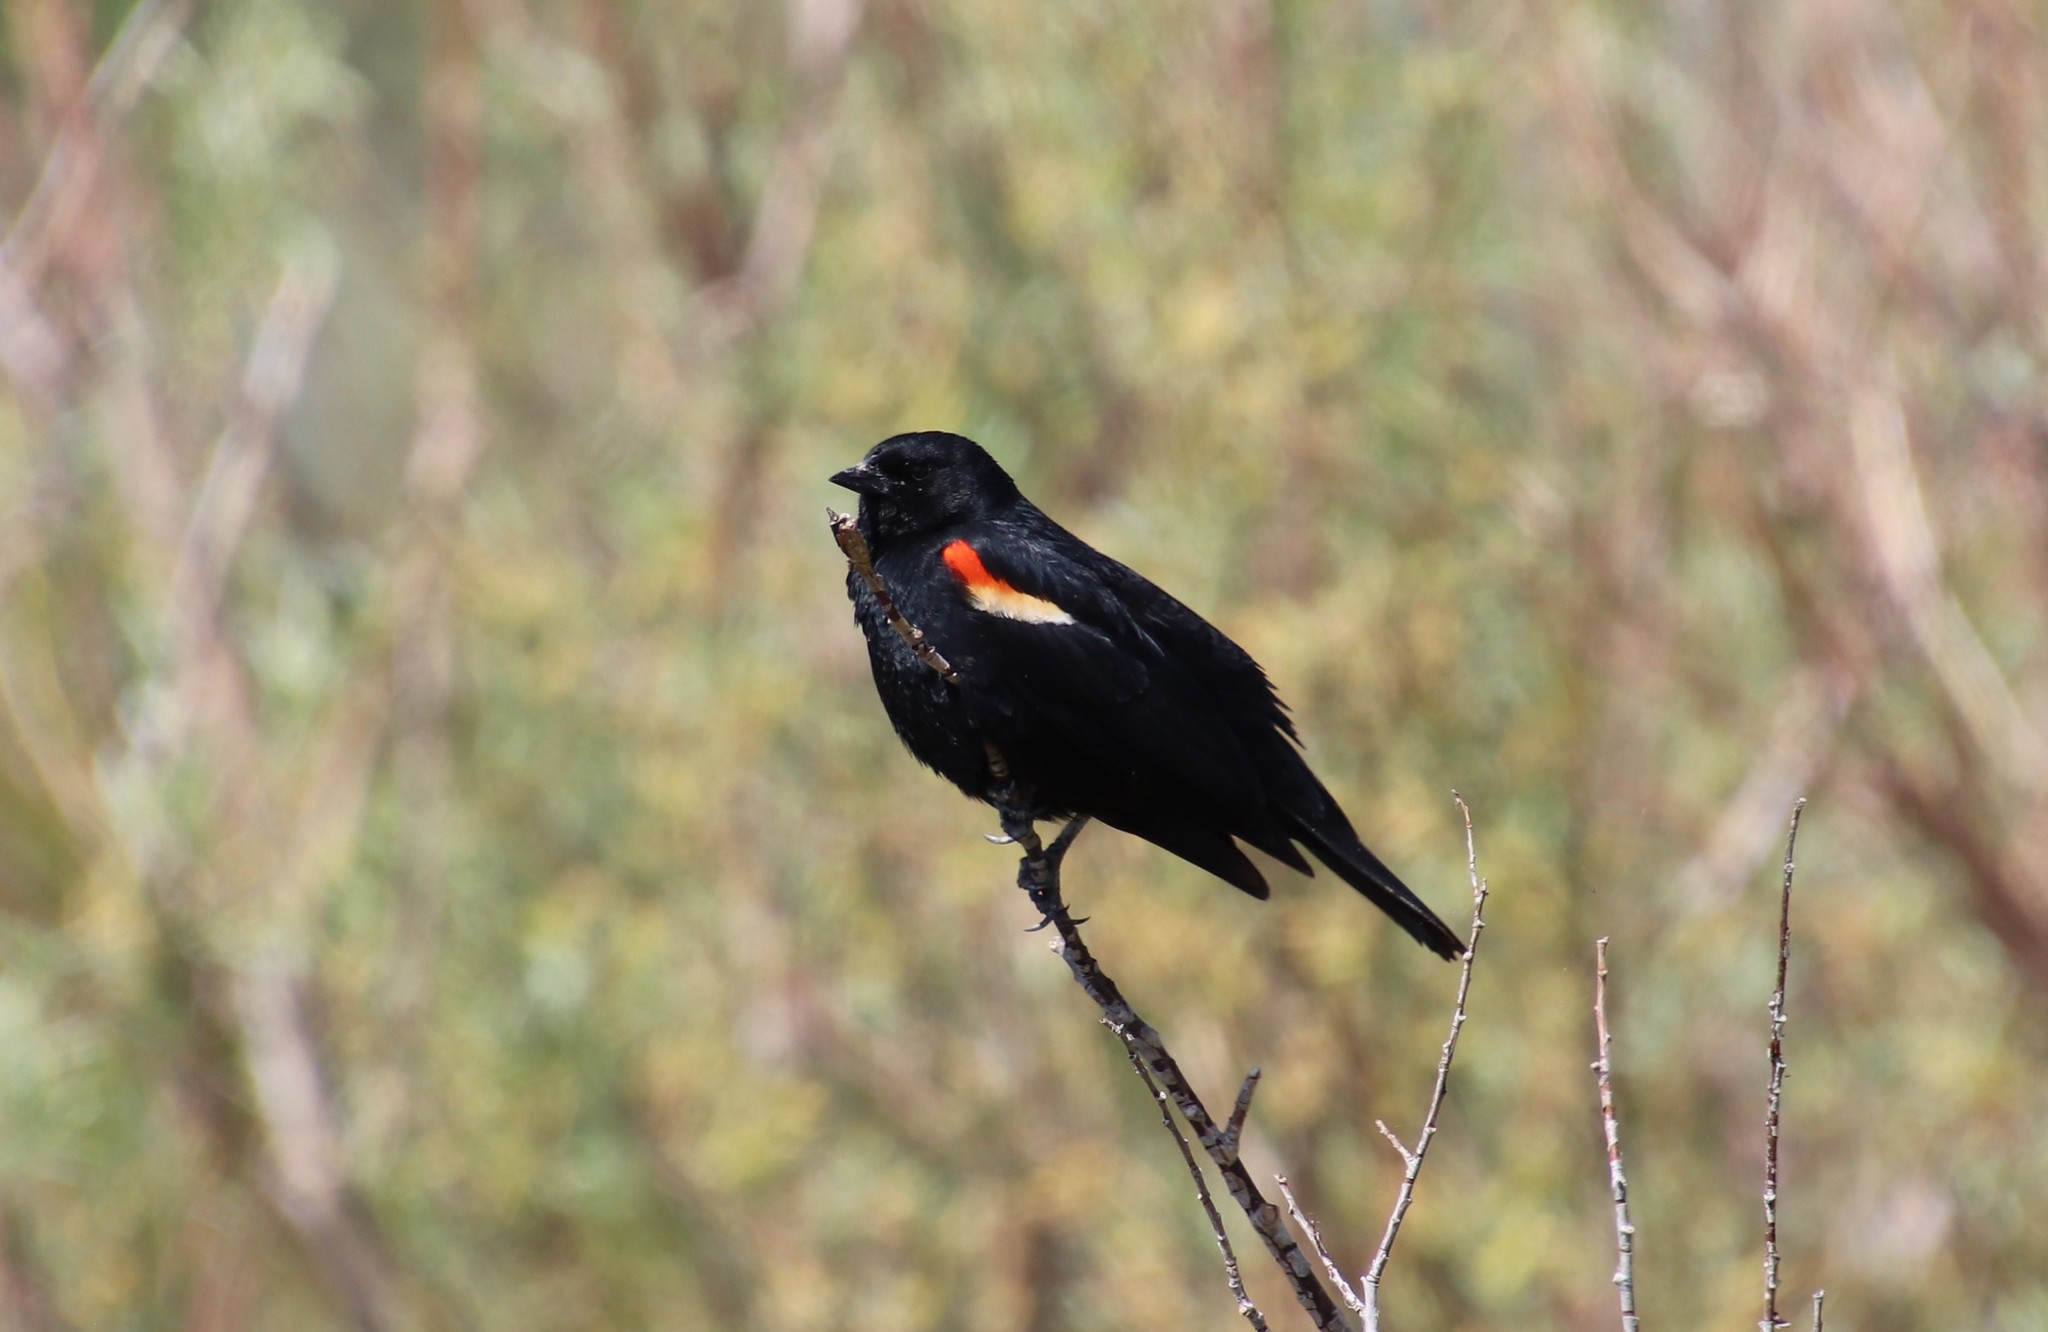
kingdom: Animalia
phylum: Chordata
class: Aves
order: Passeriformes
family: Icteridae
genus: Agelaius
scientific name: Agelaius phoeniceus
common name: Red-winged blackbird
